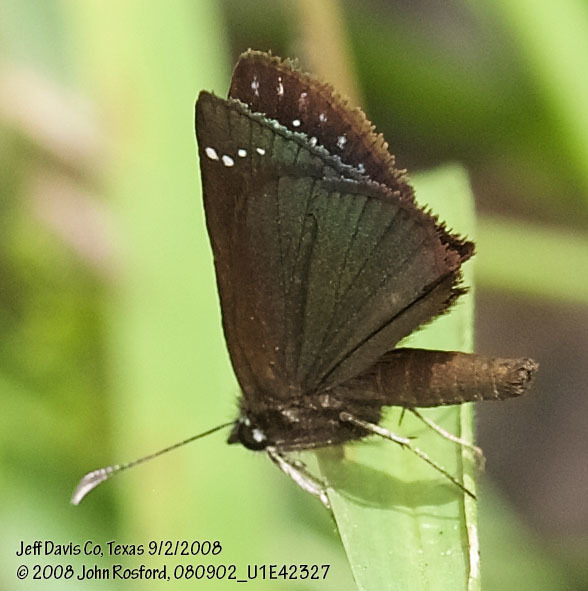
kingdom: Animalia
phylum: Arthropoda
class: Insecta
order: Lepidoptera
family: Hesperiidae
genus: Pholisora
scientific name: Pholisora catullus
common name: Common sootywing
